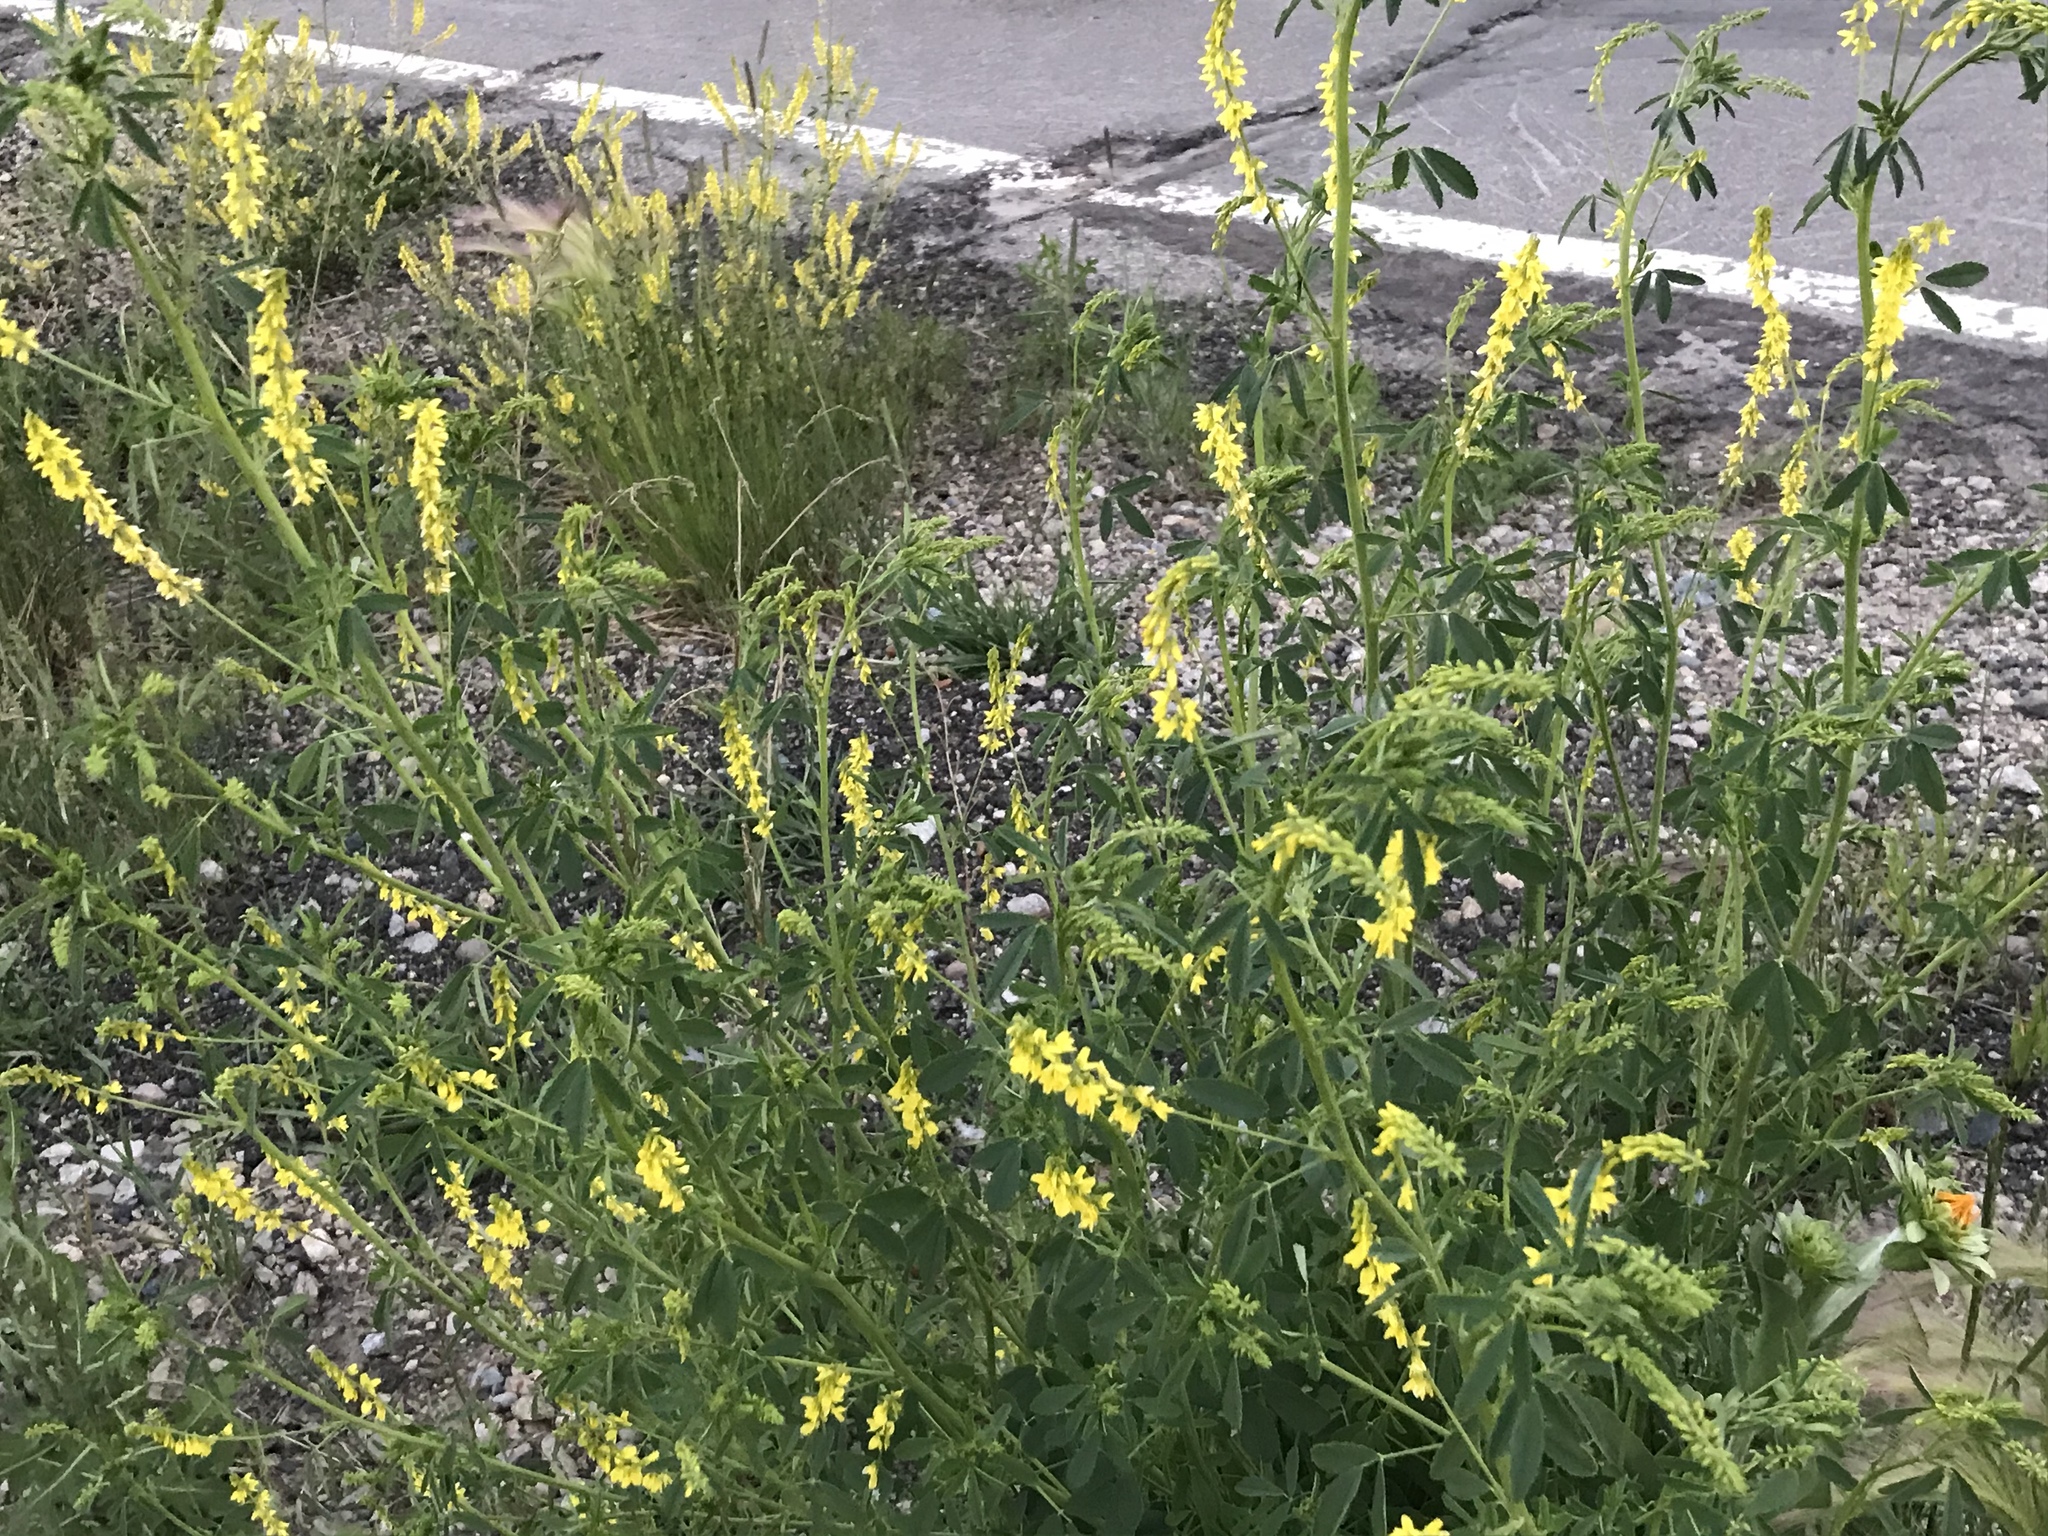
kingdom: Plantae
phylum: Tracheophyta
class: Magnoliopsida
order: Fabales
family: Fabaceae
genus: Melilotus
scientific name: Melilotus officinalis
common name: Sweetclover
